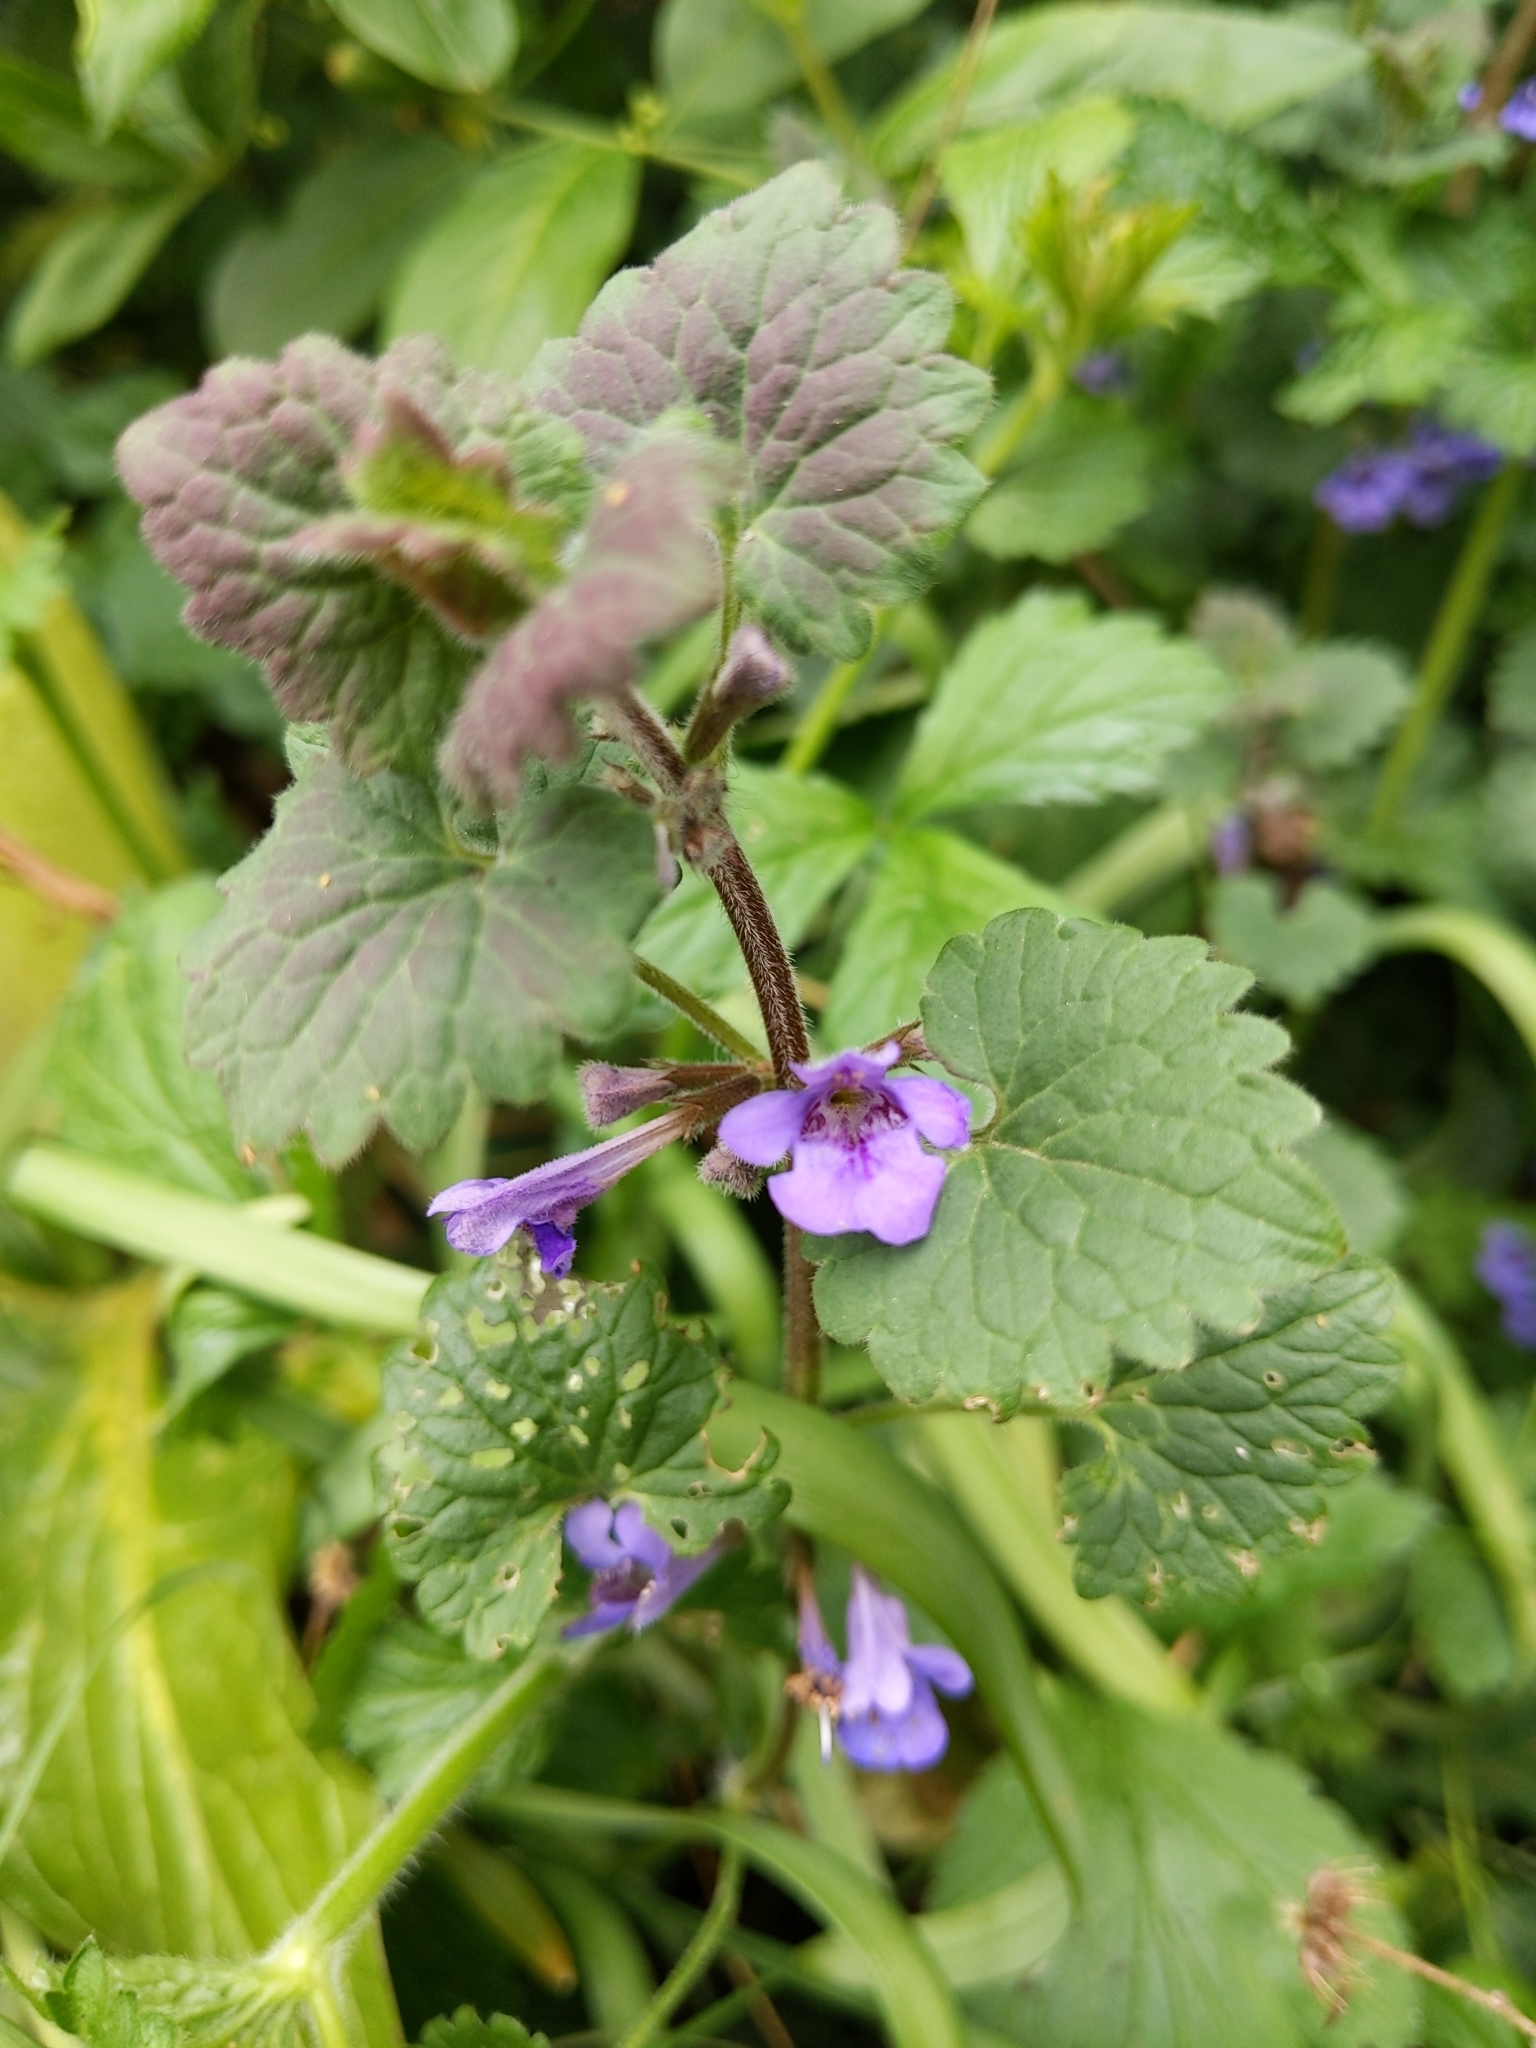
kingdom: Plantae
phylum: Tracheophyta
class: Magnoliopsida
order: Lamiales
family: Lamiaceae
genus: Glechoma
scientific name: Glechoma hederacea
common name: Ground ivy
